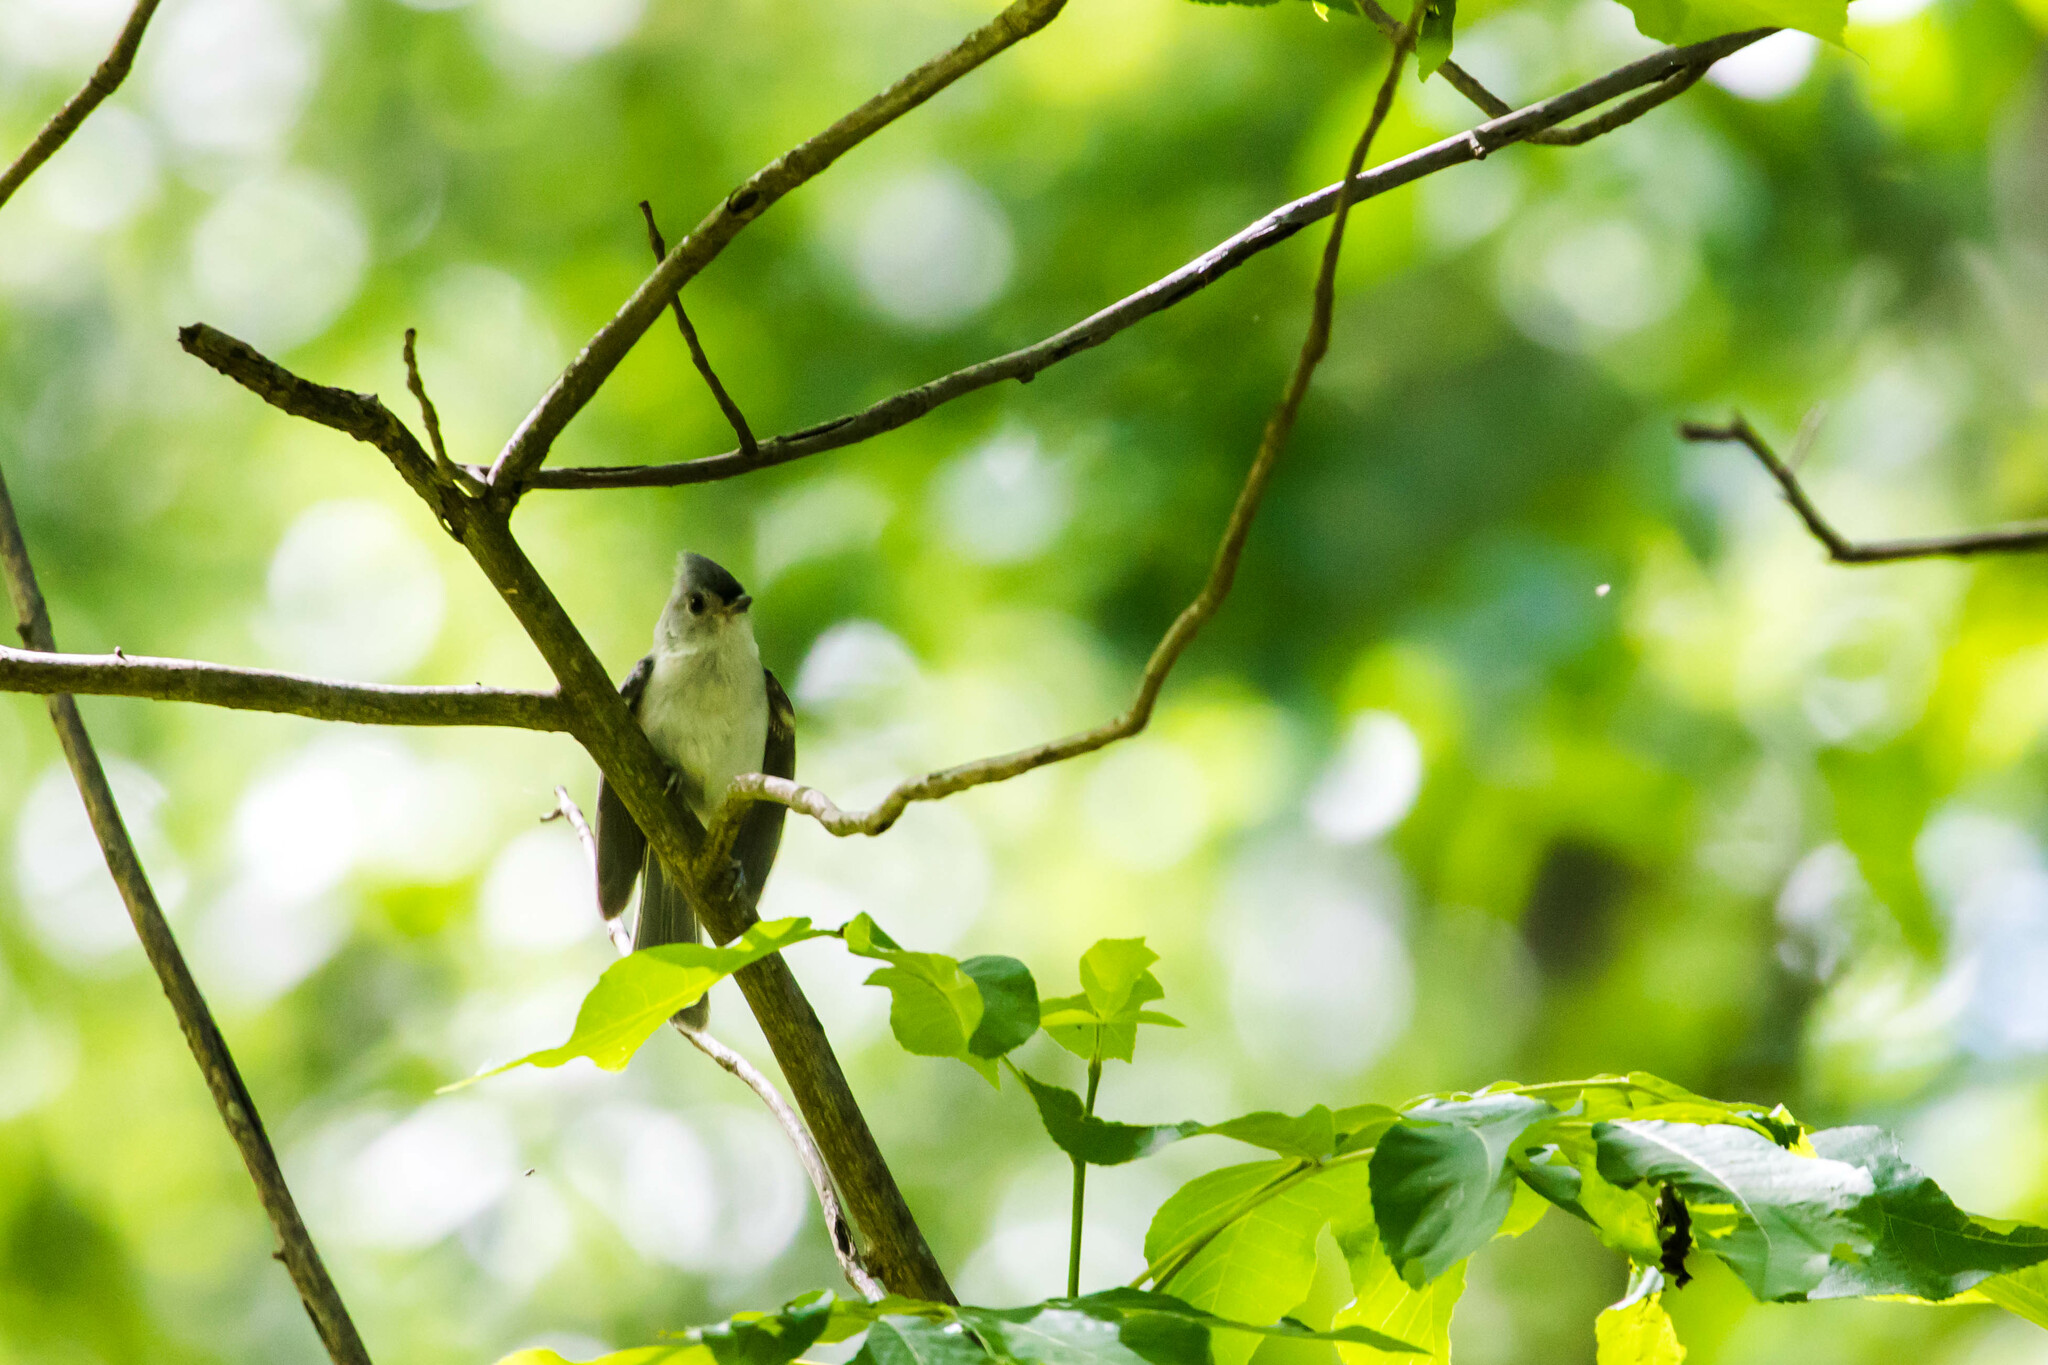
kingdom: Animalia
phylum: Chordata
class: Aves
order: Passeriformes
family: Paridae
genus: Baeolophus
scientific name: Baeolophus bicolor
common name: Tufted titmouse
